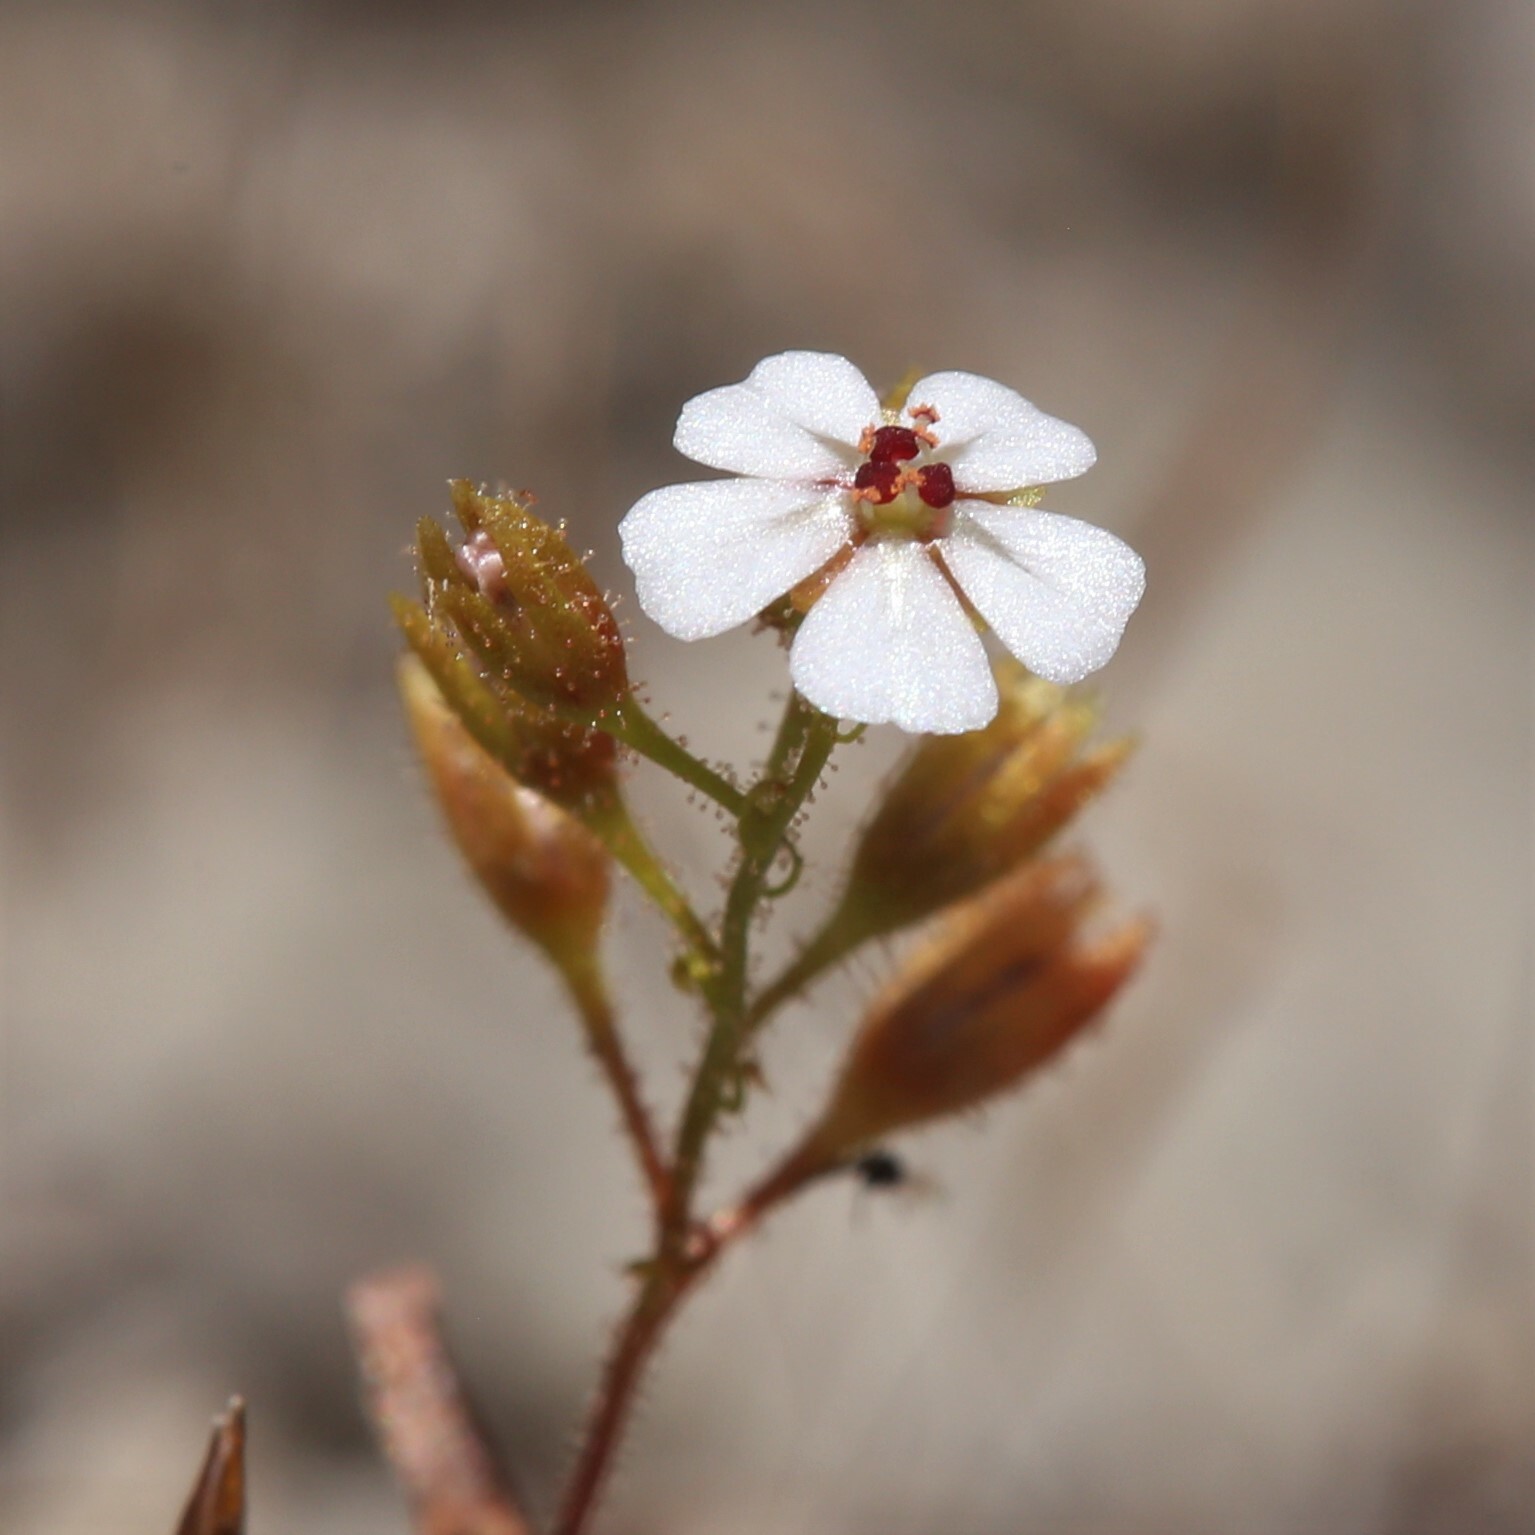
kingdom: Plantae
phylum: Tracheophyta
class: Magnoliopsida
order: Caryophyllales
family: Droseraceae
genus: Drosera
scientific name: Drosera nitidula
